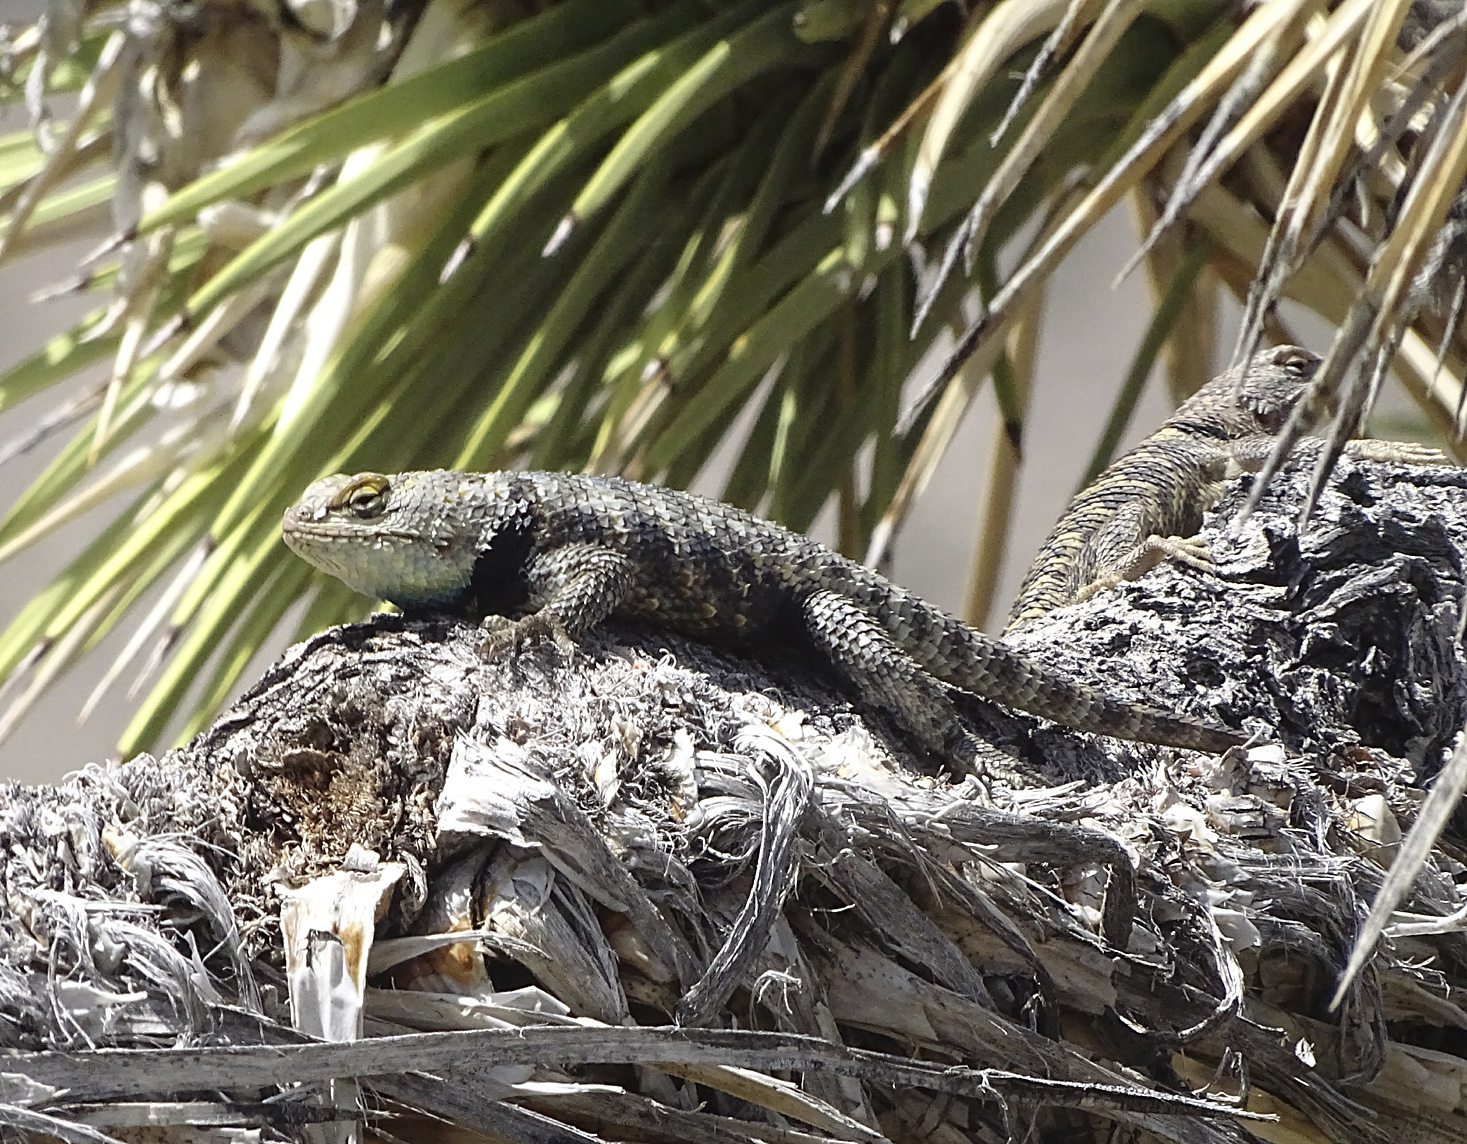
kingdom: Animalia
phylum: Chordata
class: Squamata
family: Phrynosomatidae
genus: Sceloporus
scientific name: Sceloporus uniformis
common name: Yellow-backed spiny lizard
